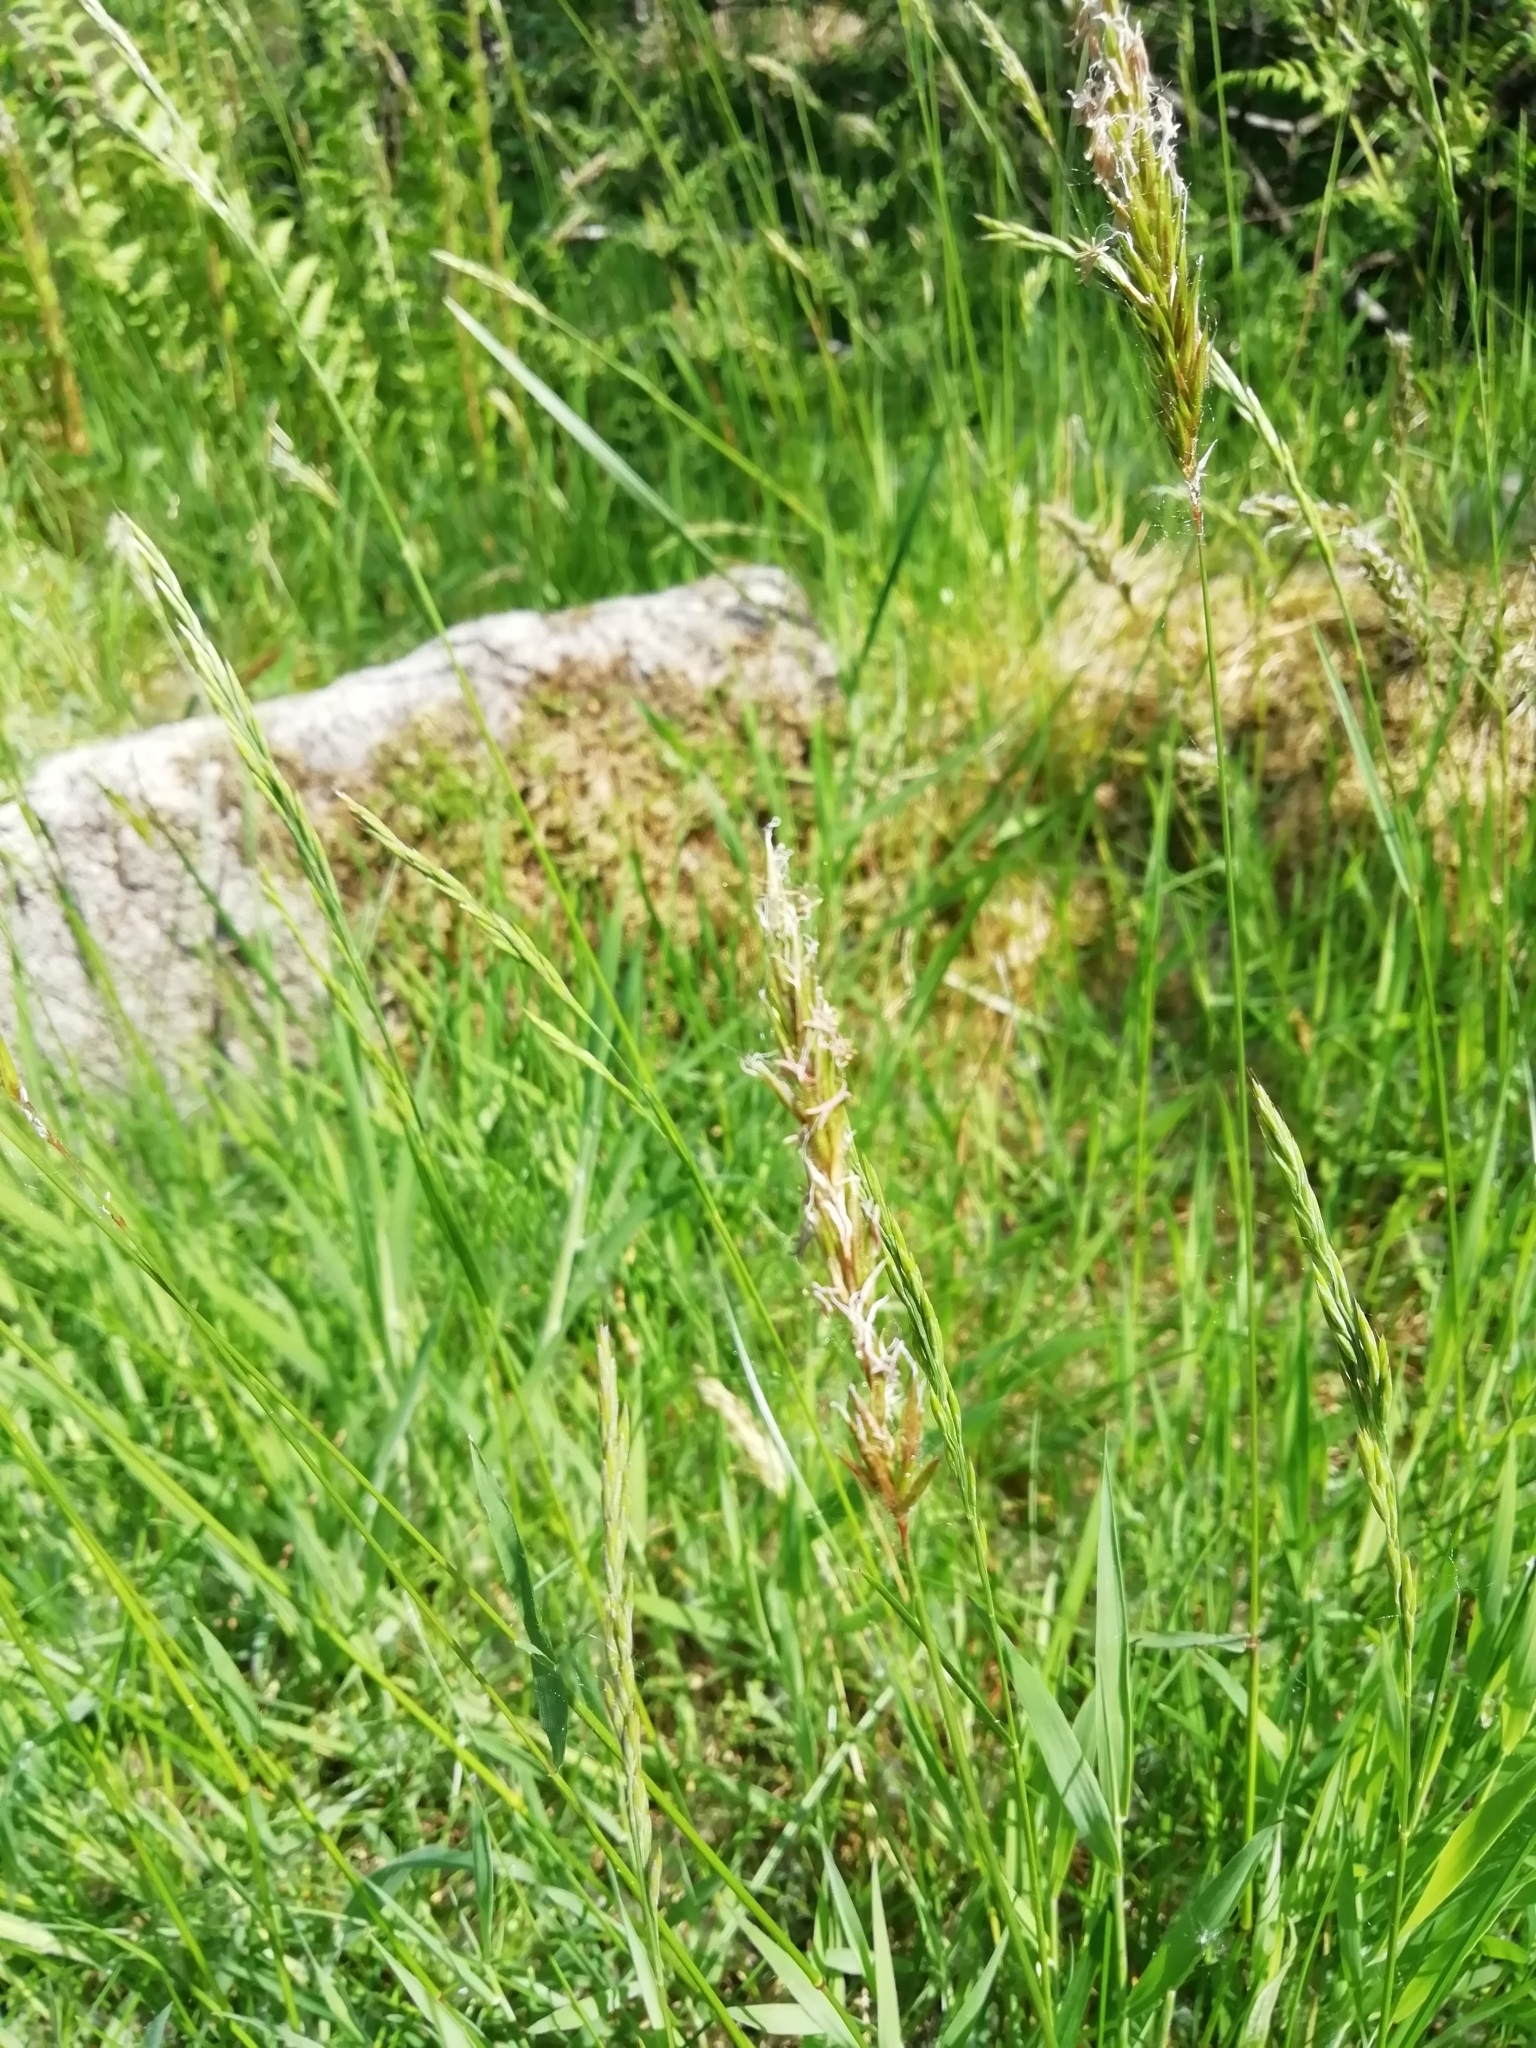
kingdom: Plantae
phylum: Tracheophyta
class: Liliopsida
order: Poales
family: Poaceae
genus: Anthoxanthum
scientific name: Anthoxanthum odoratum
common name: Sweet vernalgrass
